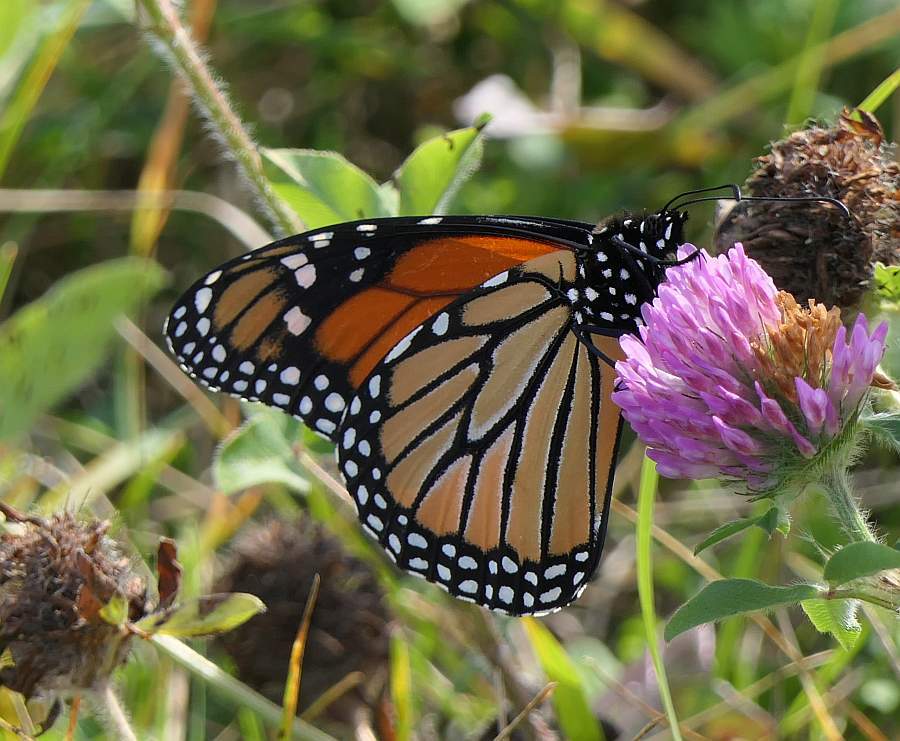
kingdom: Animalia
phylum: Arthropoda
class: Insecta
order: Lepidoptera
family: Nymphalidae
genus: Danaus
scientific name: Danaus plexippus
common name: Monarch
